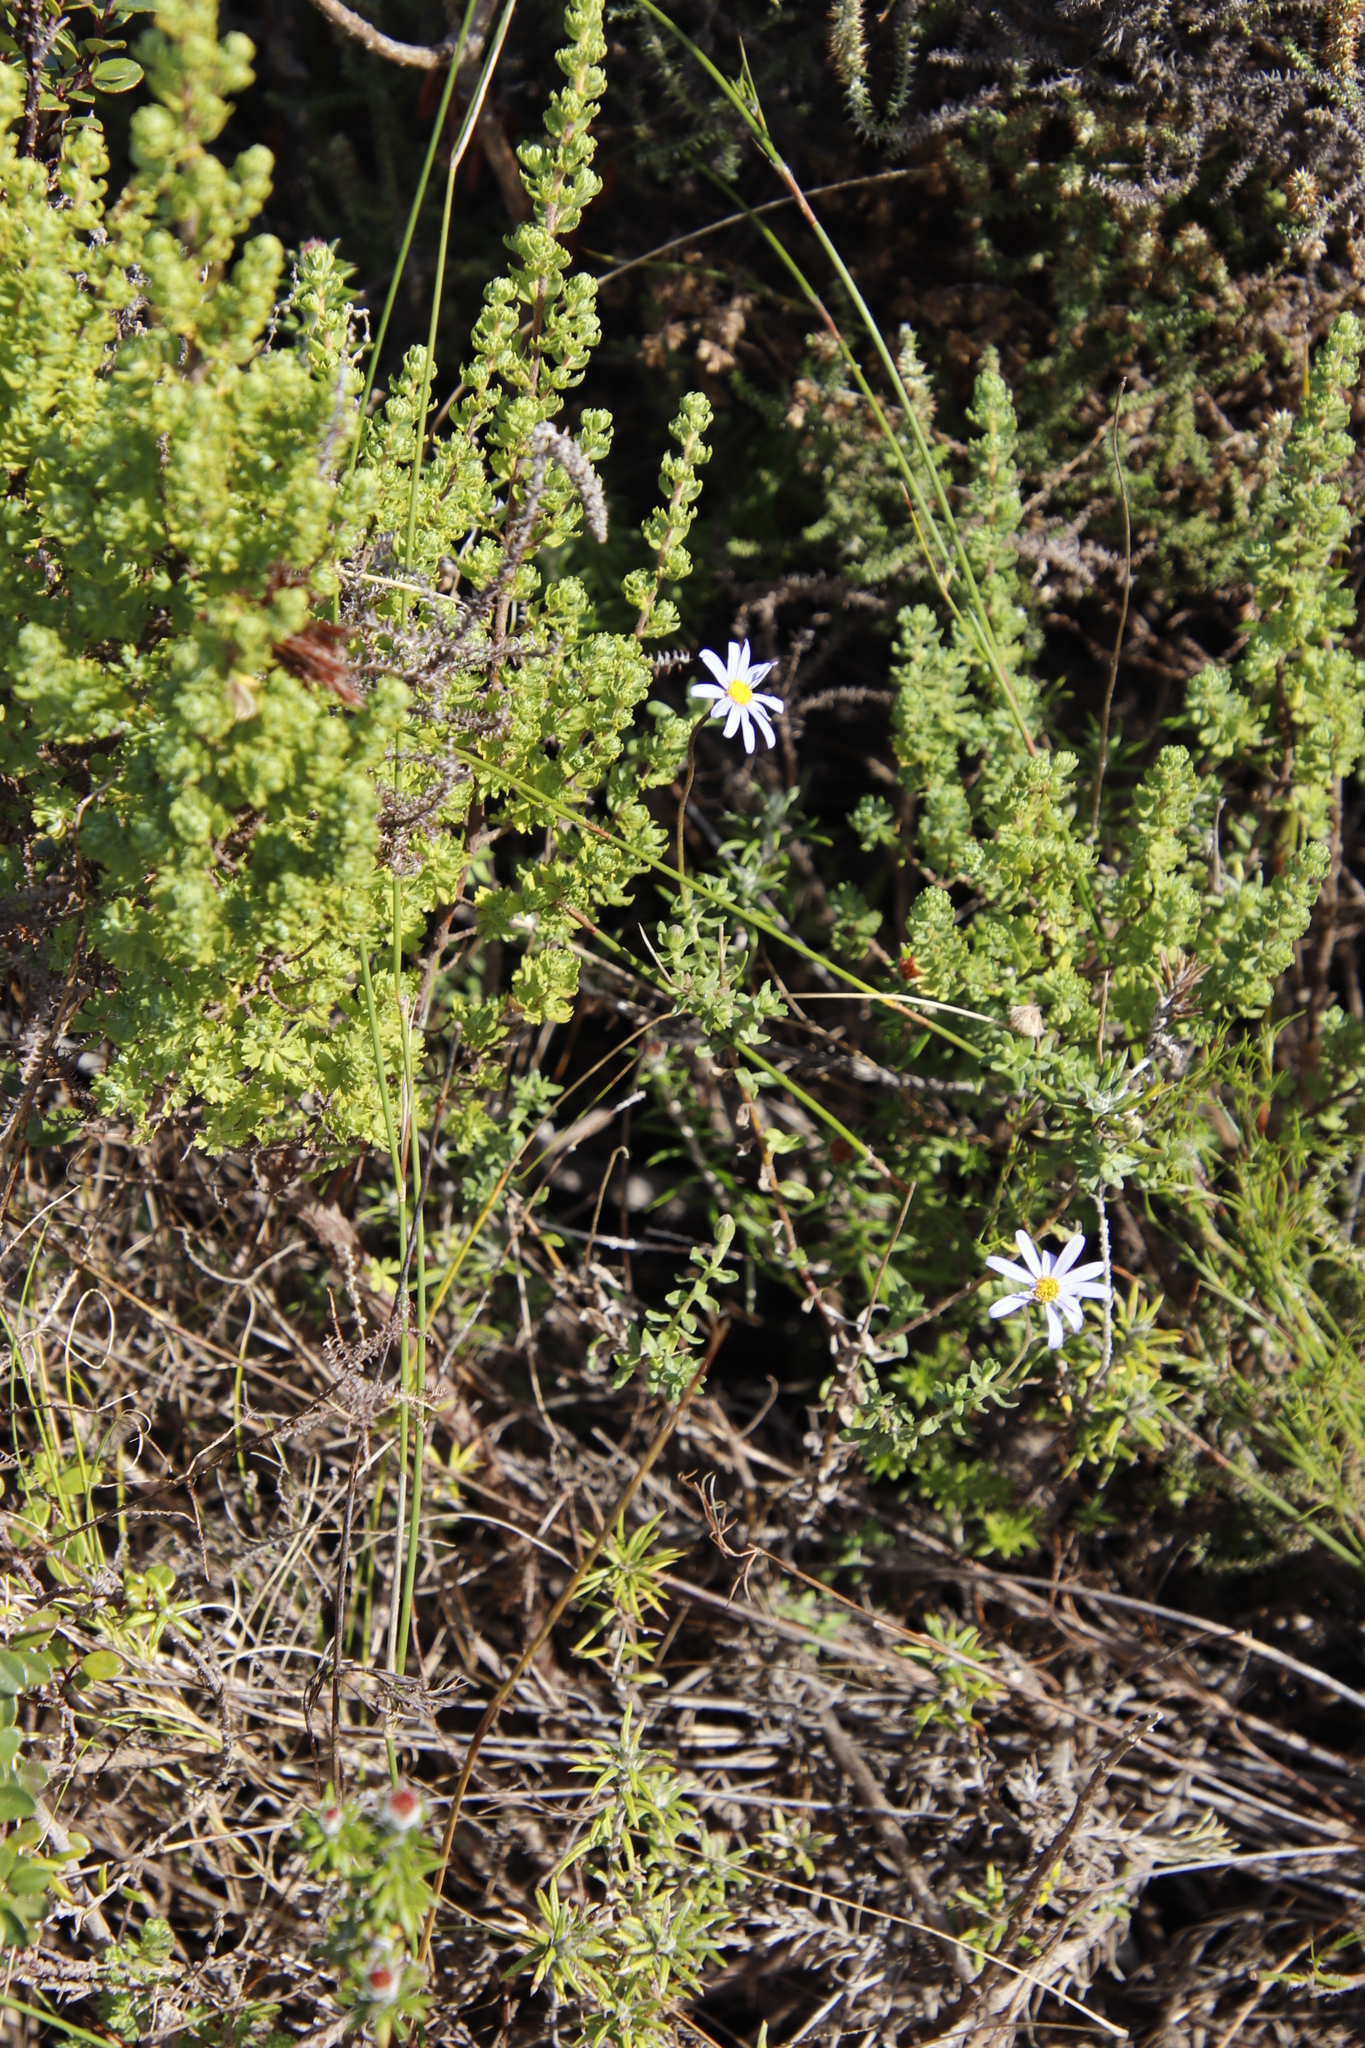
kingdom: Plantae
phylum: Tracheophyta
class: Magnoliopsida
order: Asterales
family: Asteraceae
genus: Felicia
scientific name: Felicia aethiopica
